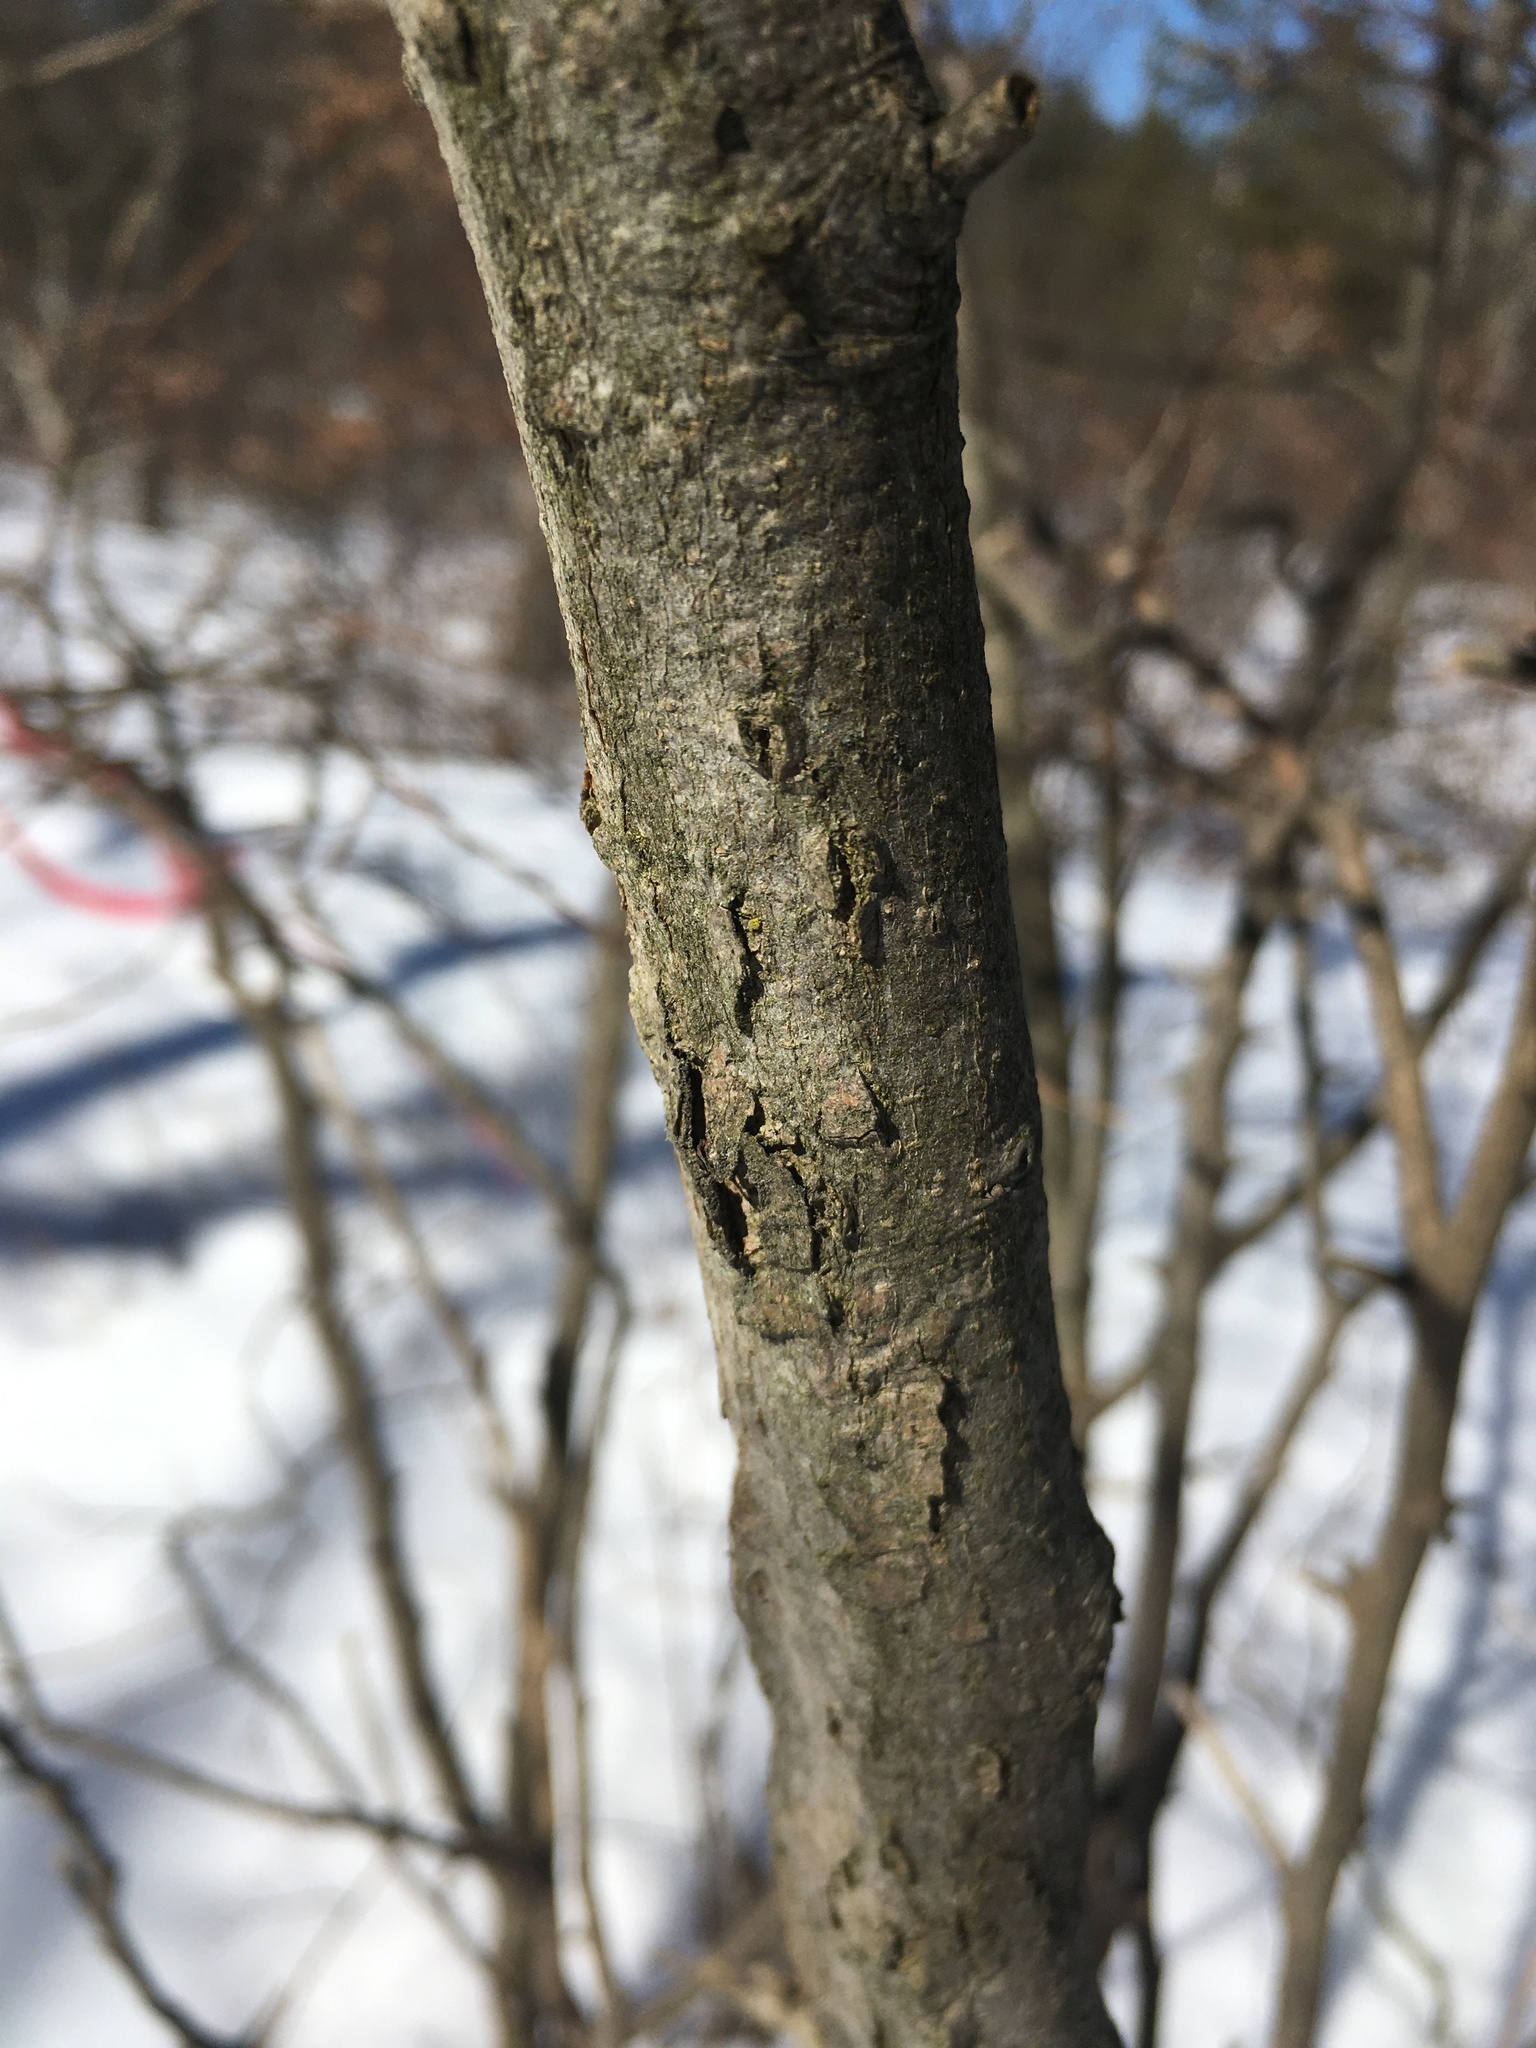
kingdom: Plantae
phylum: Tracheophyta
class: Magnoliopsida
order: Rosales
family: Cannabaceae
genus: Celtis
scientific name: Celtis tenuifolia
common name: Georgia hackberry
